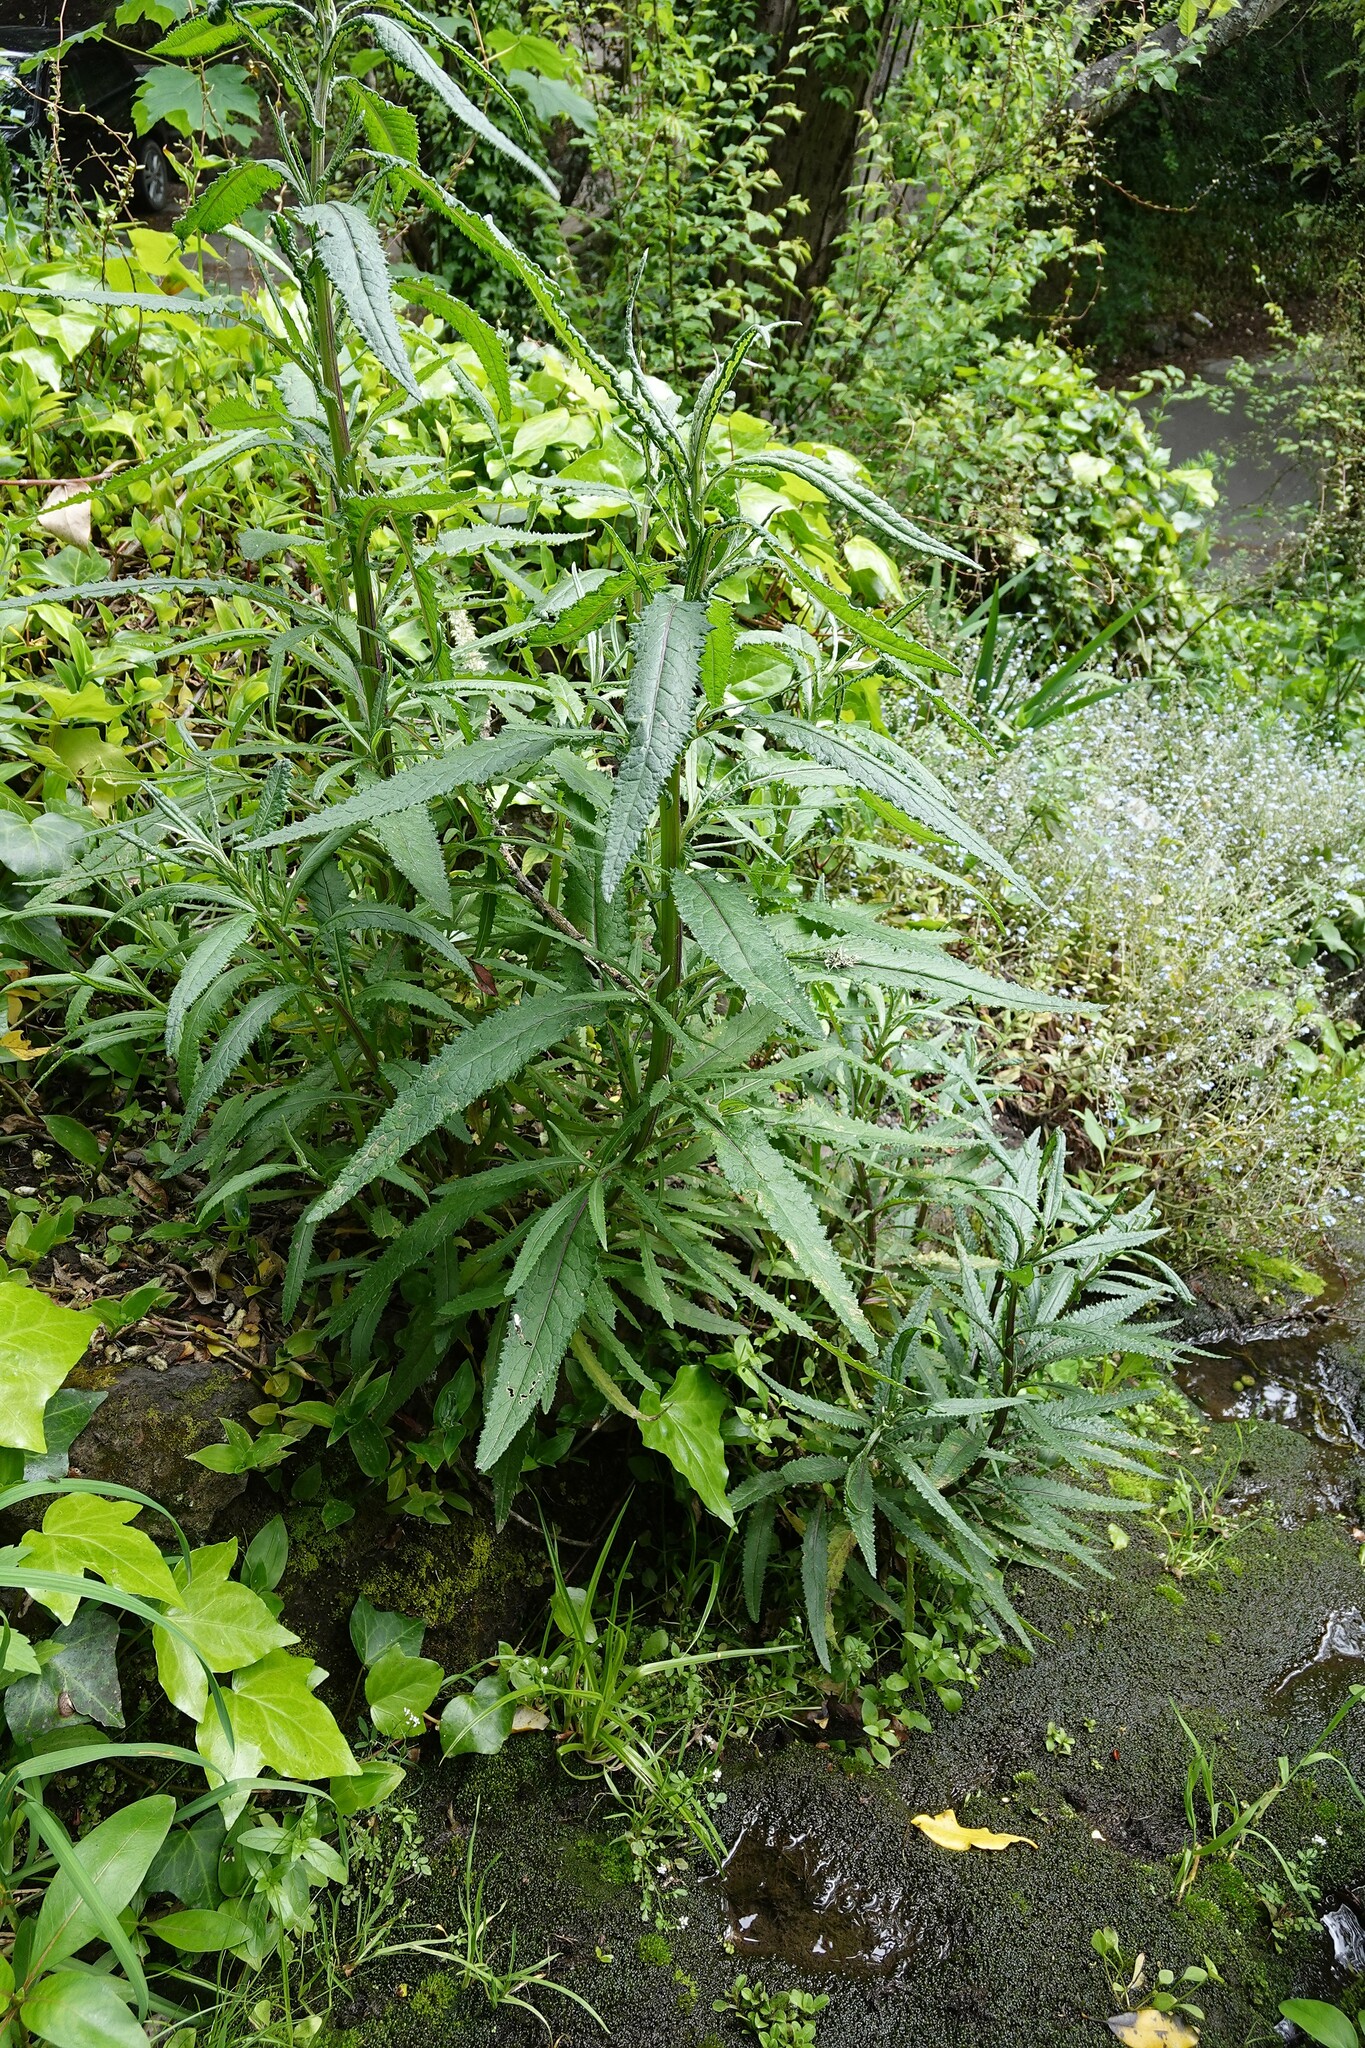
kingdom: Plantae
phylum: Tracheophyta
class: Magnoliopsida
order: Asterales
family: Asteraceae
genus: Senecio
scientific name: Senecio minimus
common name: Toothed fireweed
